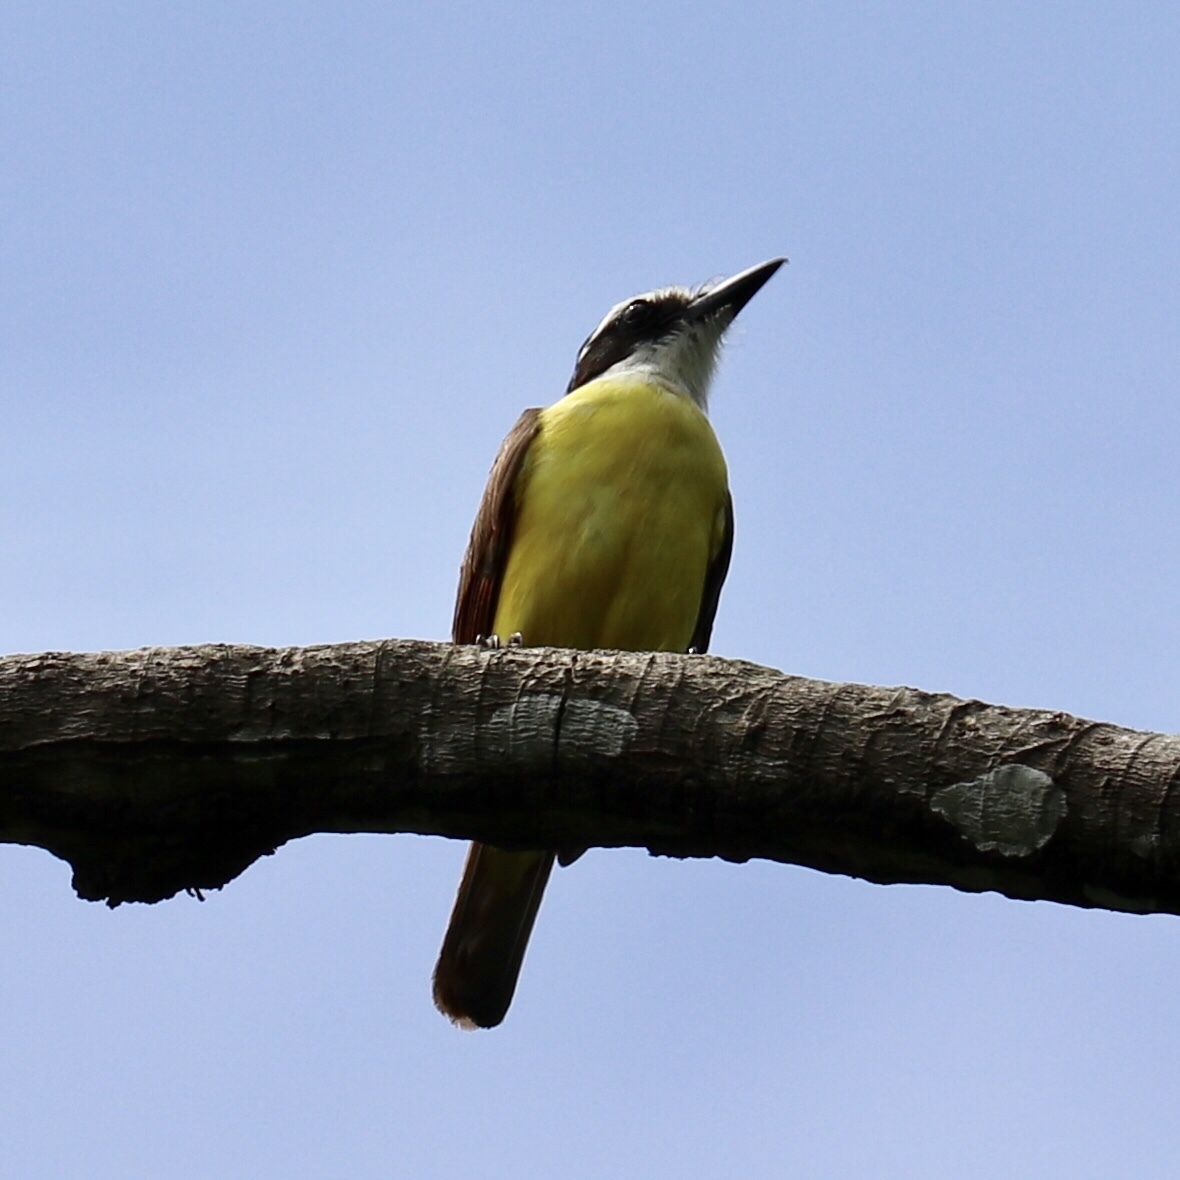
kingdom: Animalia
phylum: Chordata
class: Aves
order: Passeriformes
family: Tyrannidae
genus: Pitangus
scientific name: Pitangus sulphuratus
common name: Great kiskadee
